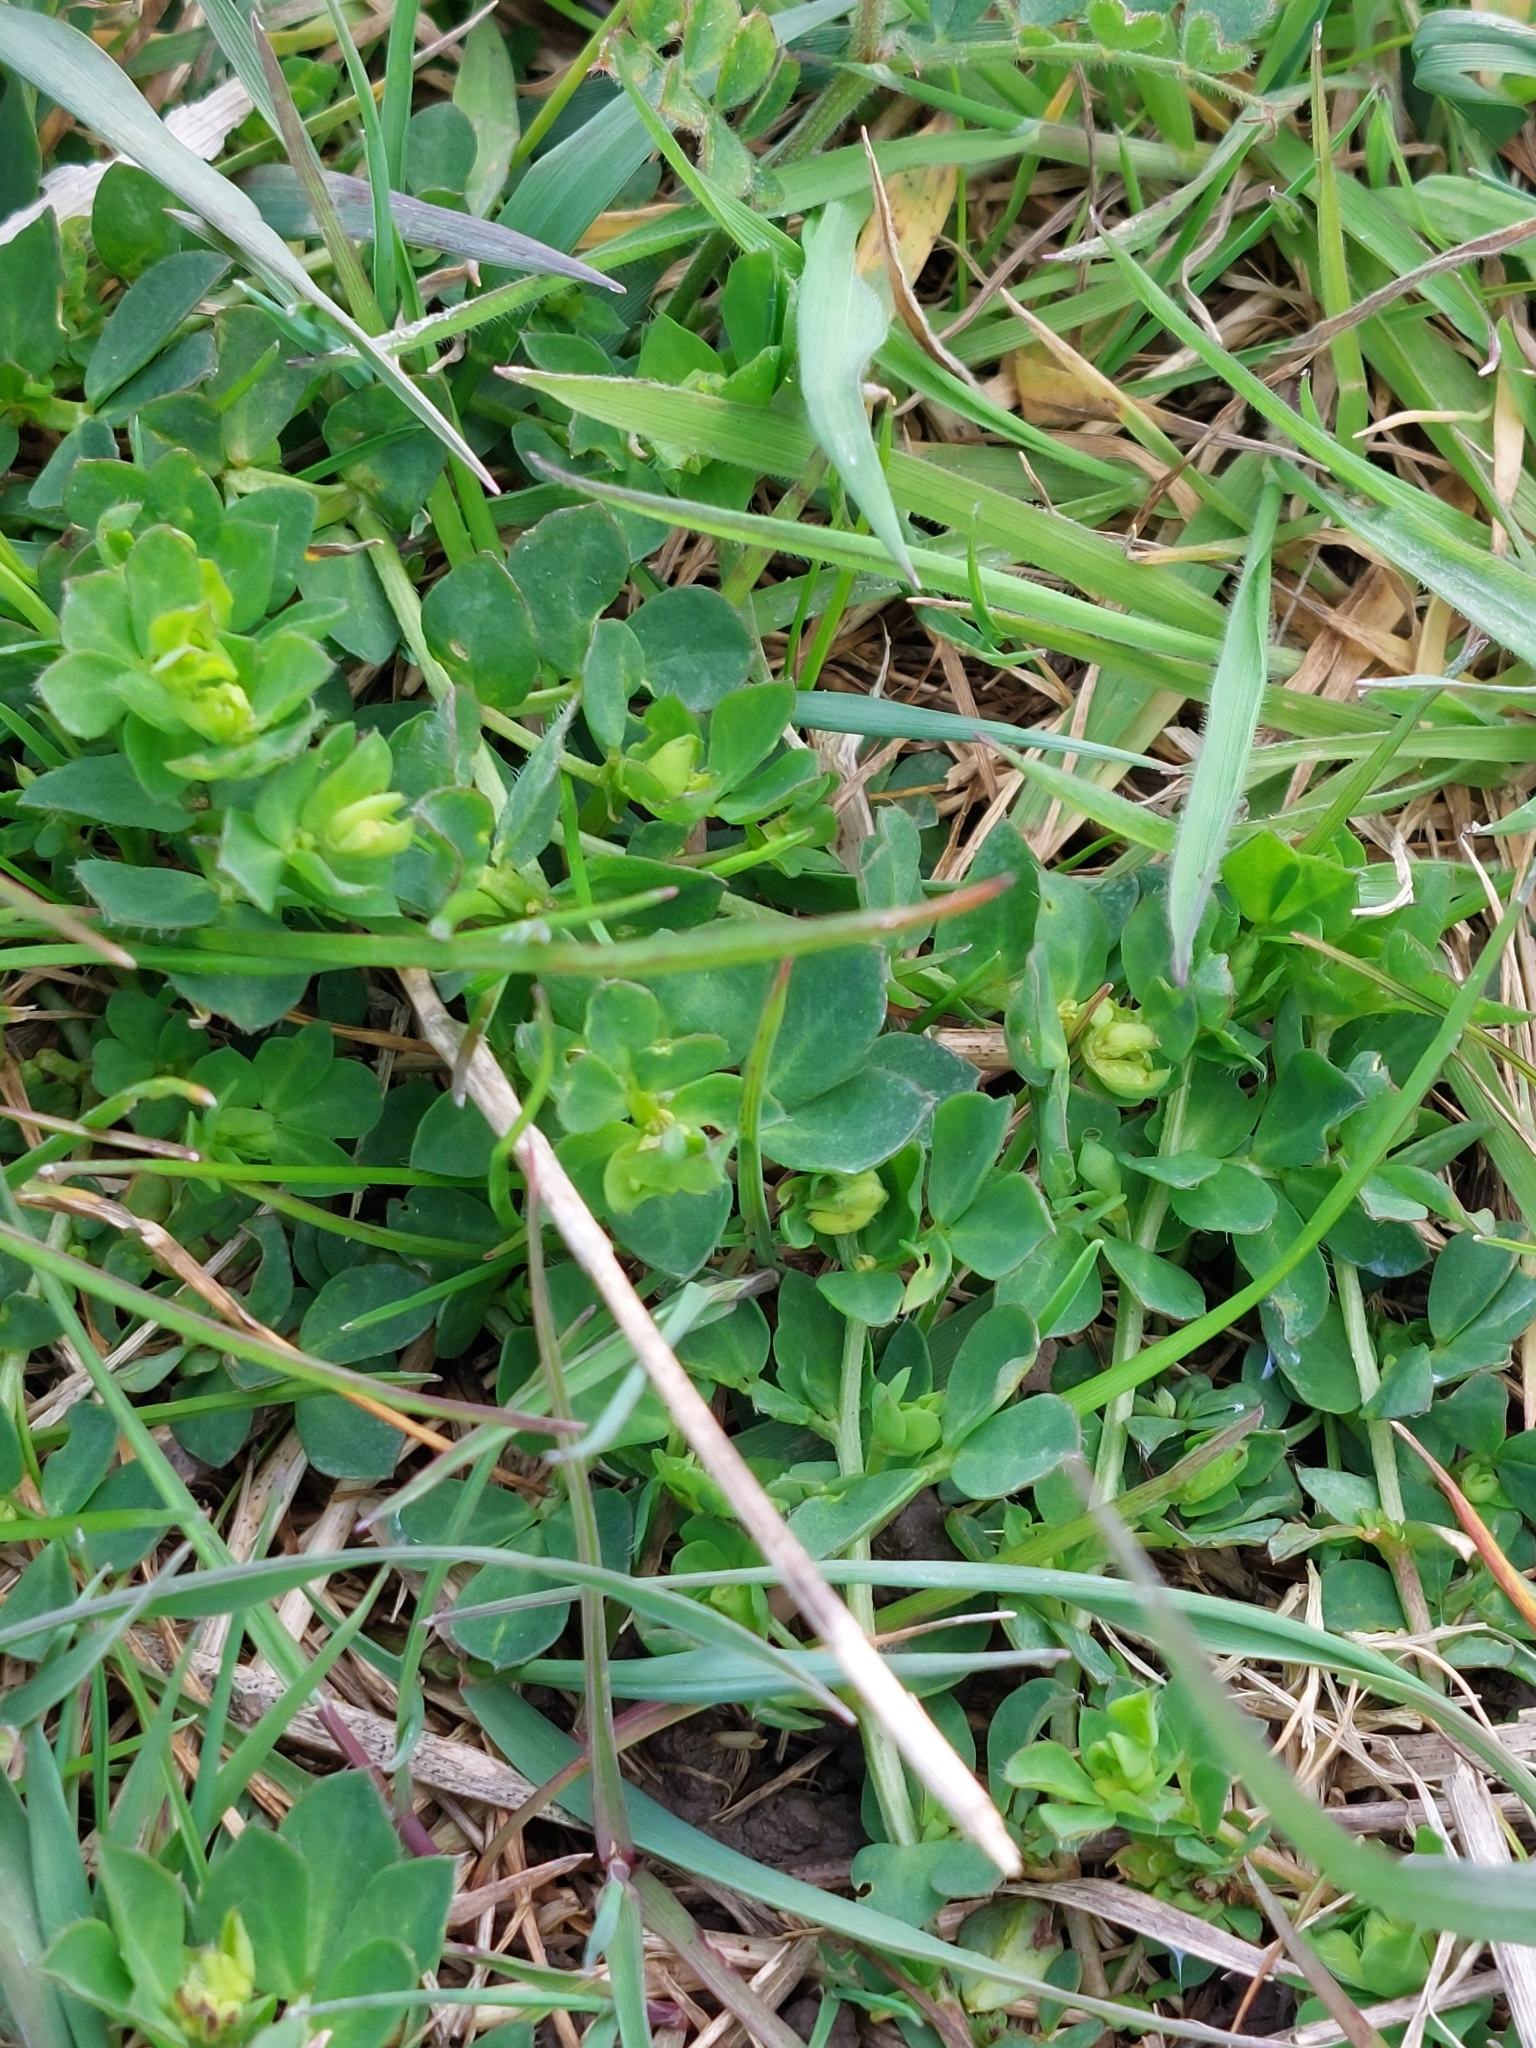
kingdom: Plantae
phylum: Tracheophyta
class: Magnoliopsida
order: Fabales
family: Fabaceae
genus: Lotus
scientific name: Lotus corniculatus
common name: Common bird's-foot-trefoil
